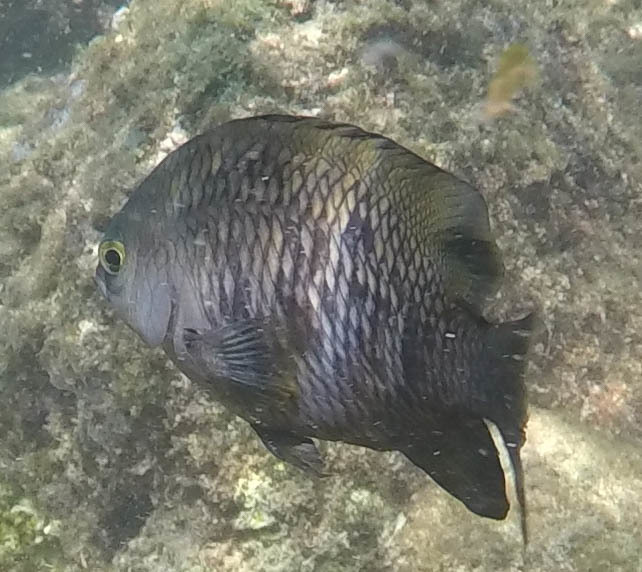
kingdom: Animalia
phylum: Chordata
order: Perciformes
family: Pomacentridae
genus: Stegastes
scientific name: Stegastes fasciolatus
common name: Pacific gregory
